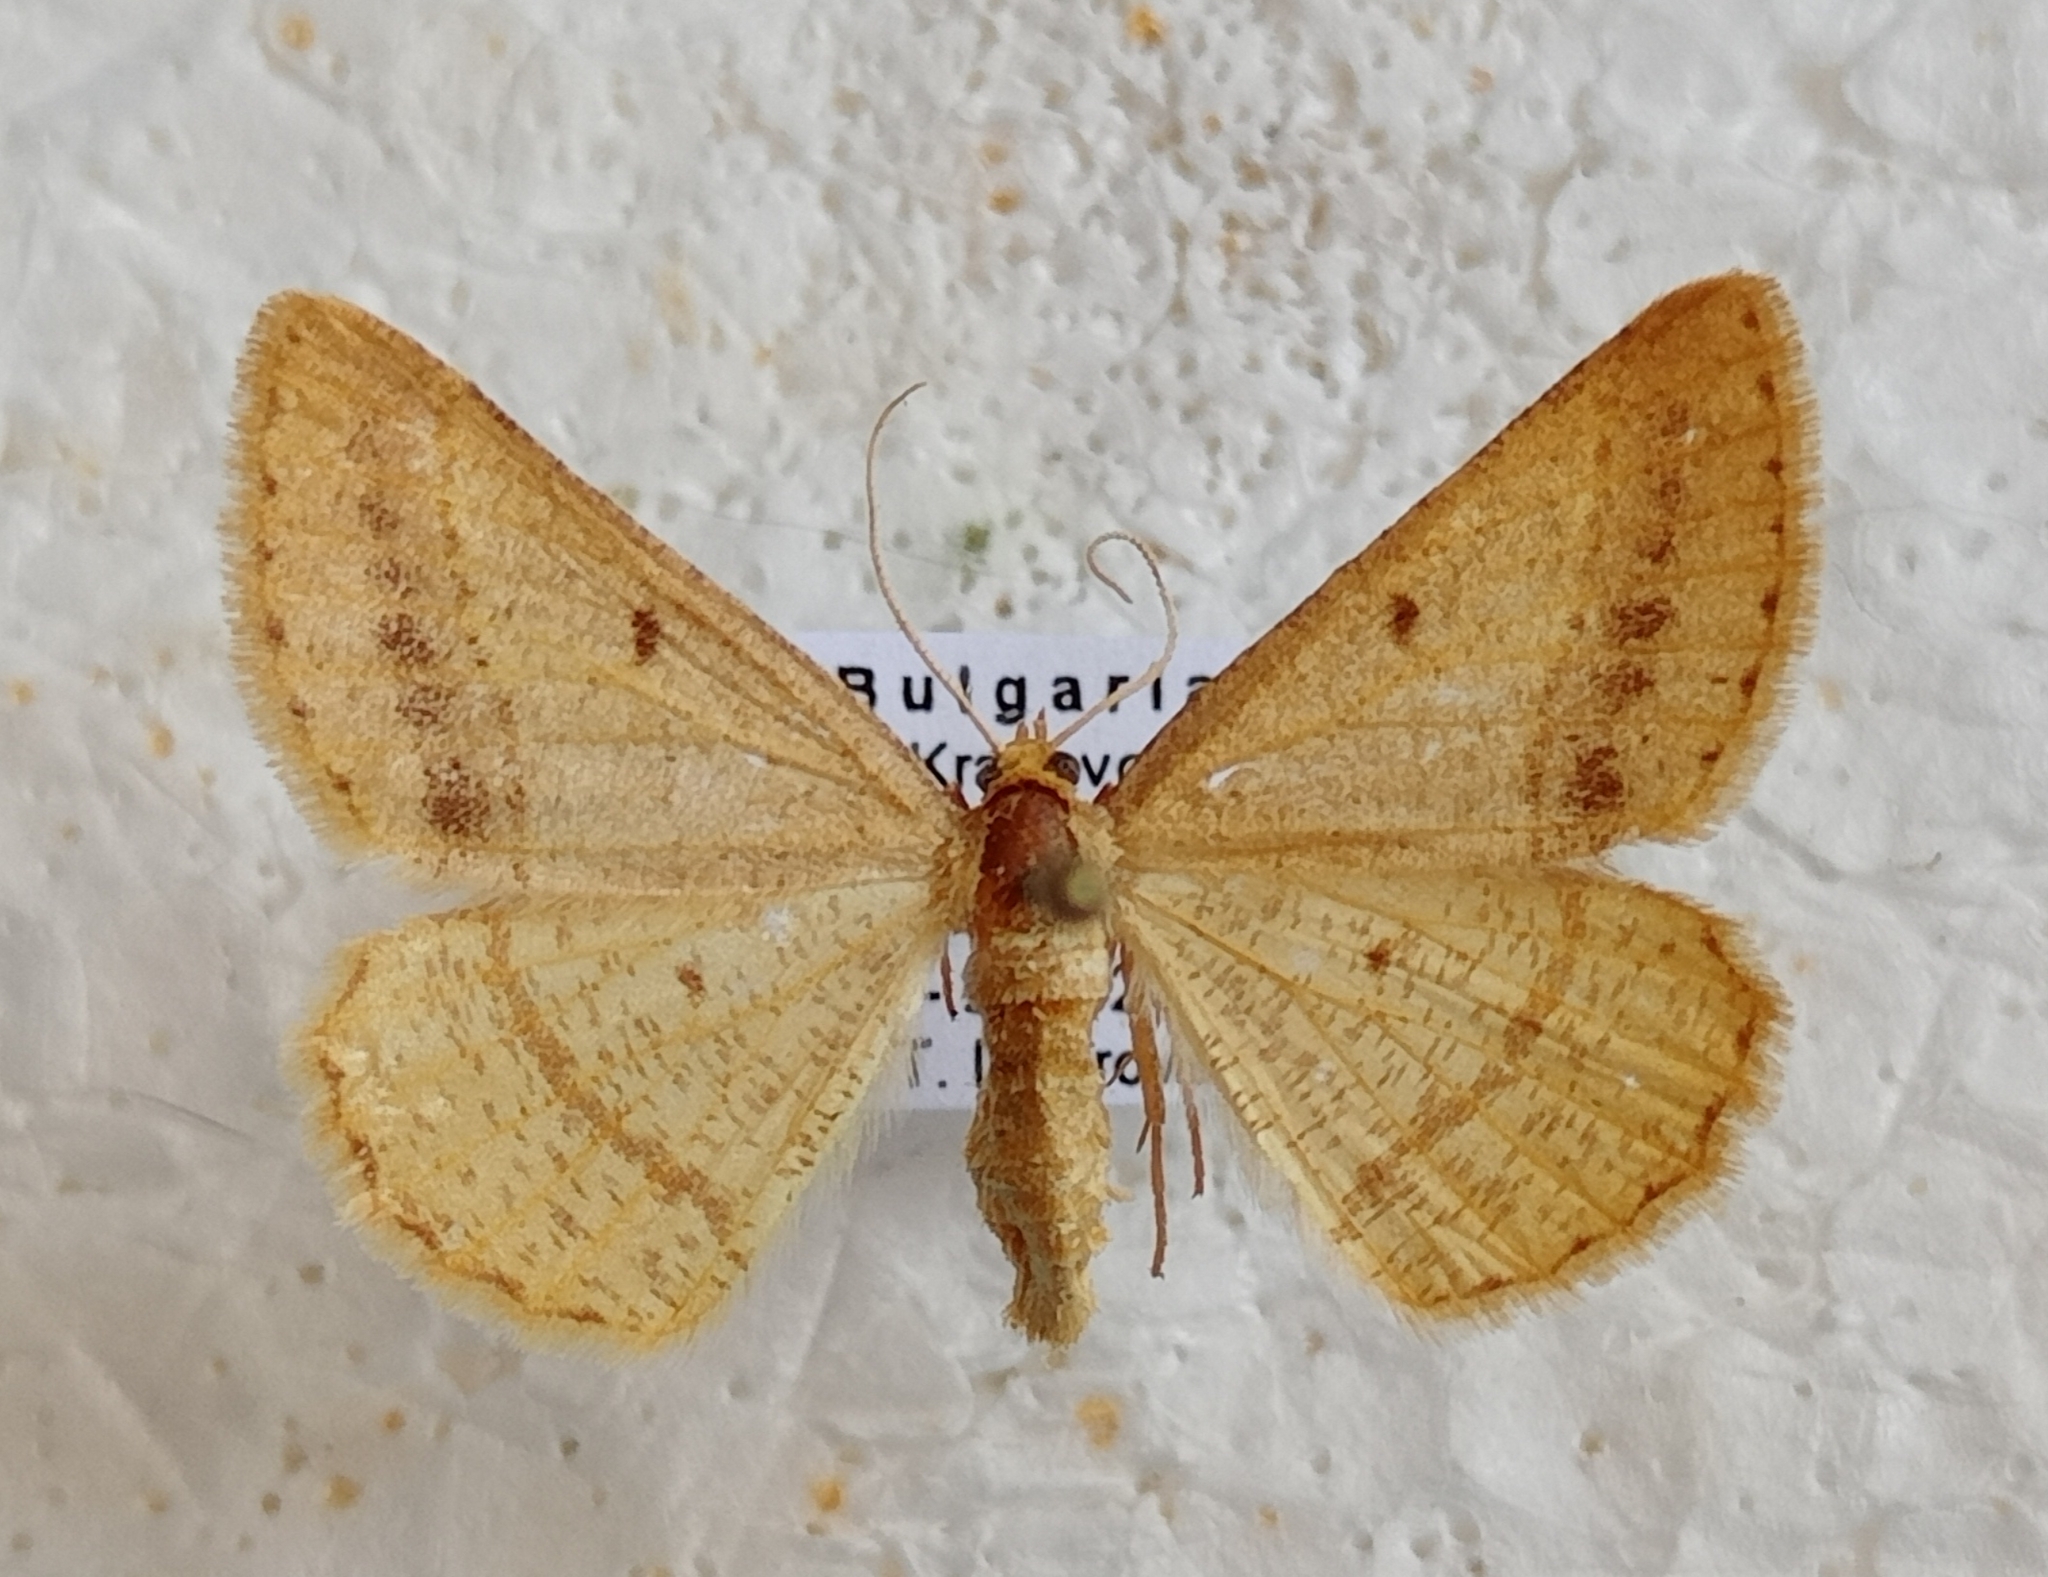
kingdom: Animalia
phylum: Arthropoda
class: Insecta
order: Lepidoptera
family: Geometridae
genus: Tephrina
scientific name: Tephrina arenacearia
